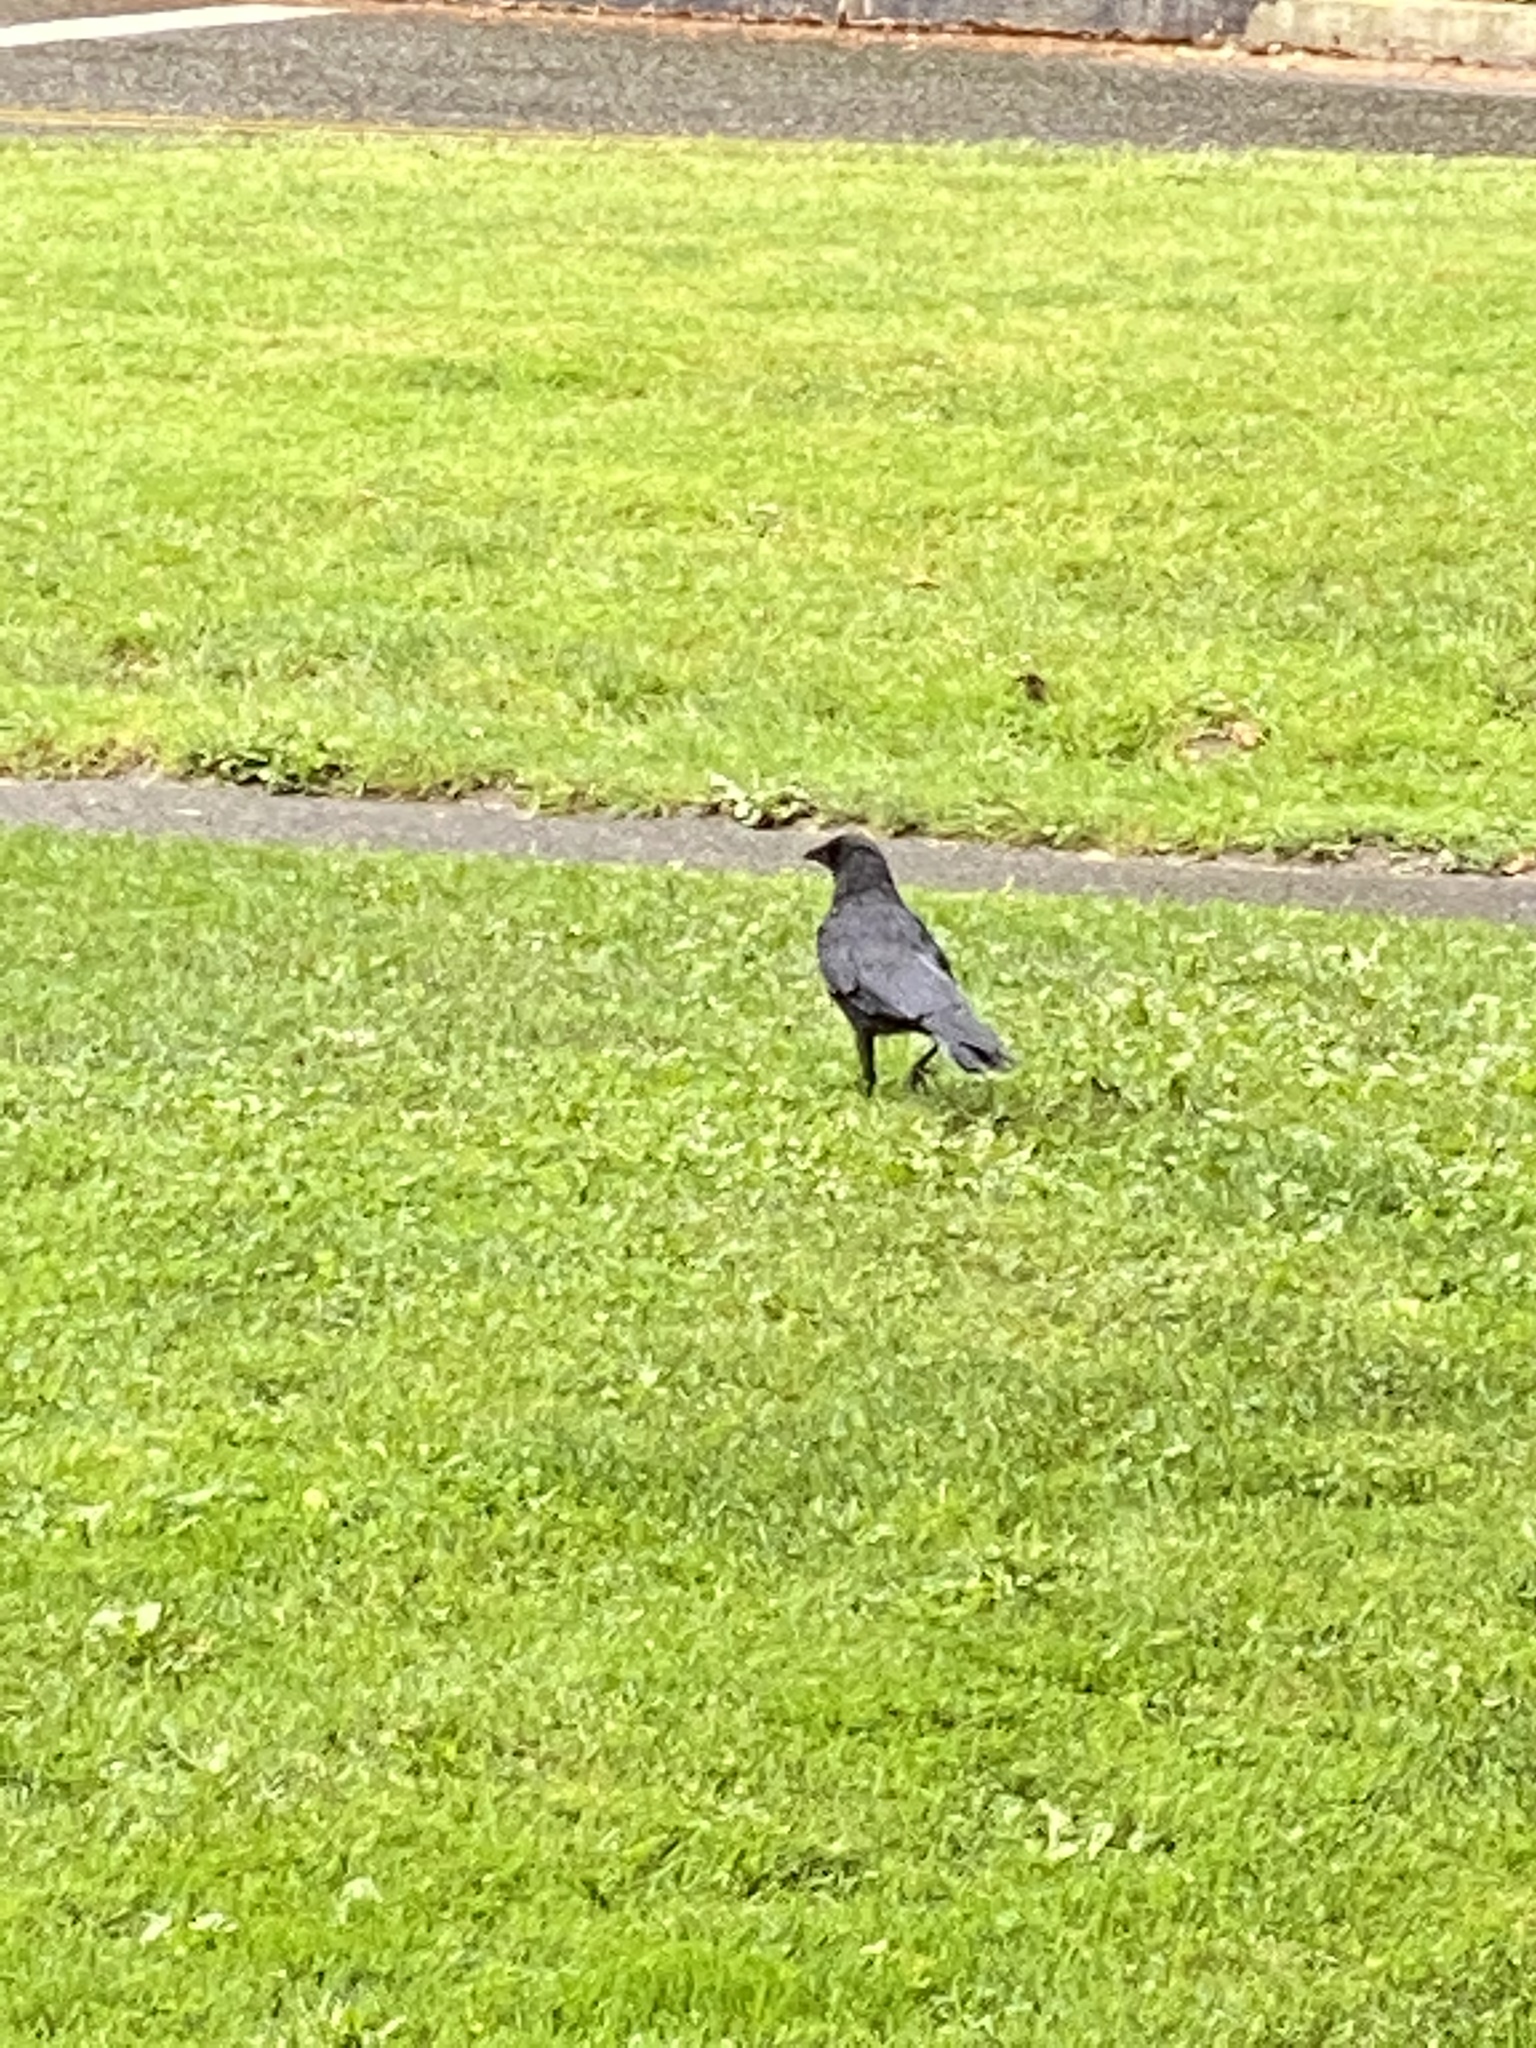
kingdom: Animalia
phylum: Chordata
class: Aves
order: Passeriformes
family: Corvidae
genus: Corvus
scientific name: Corvus brachyrhynchos
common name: American crow
